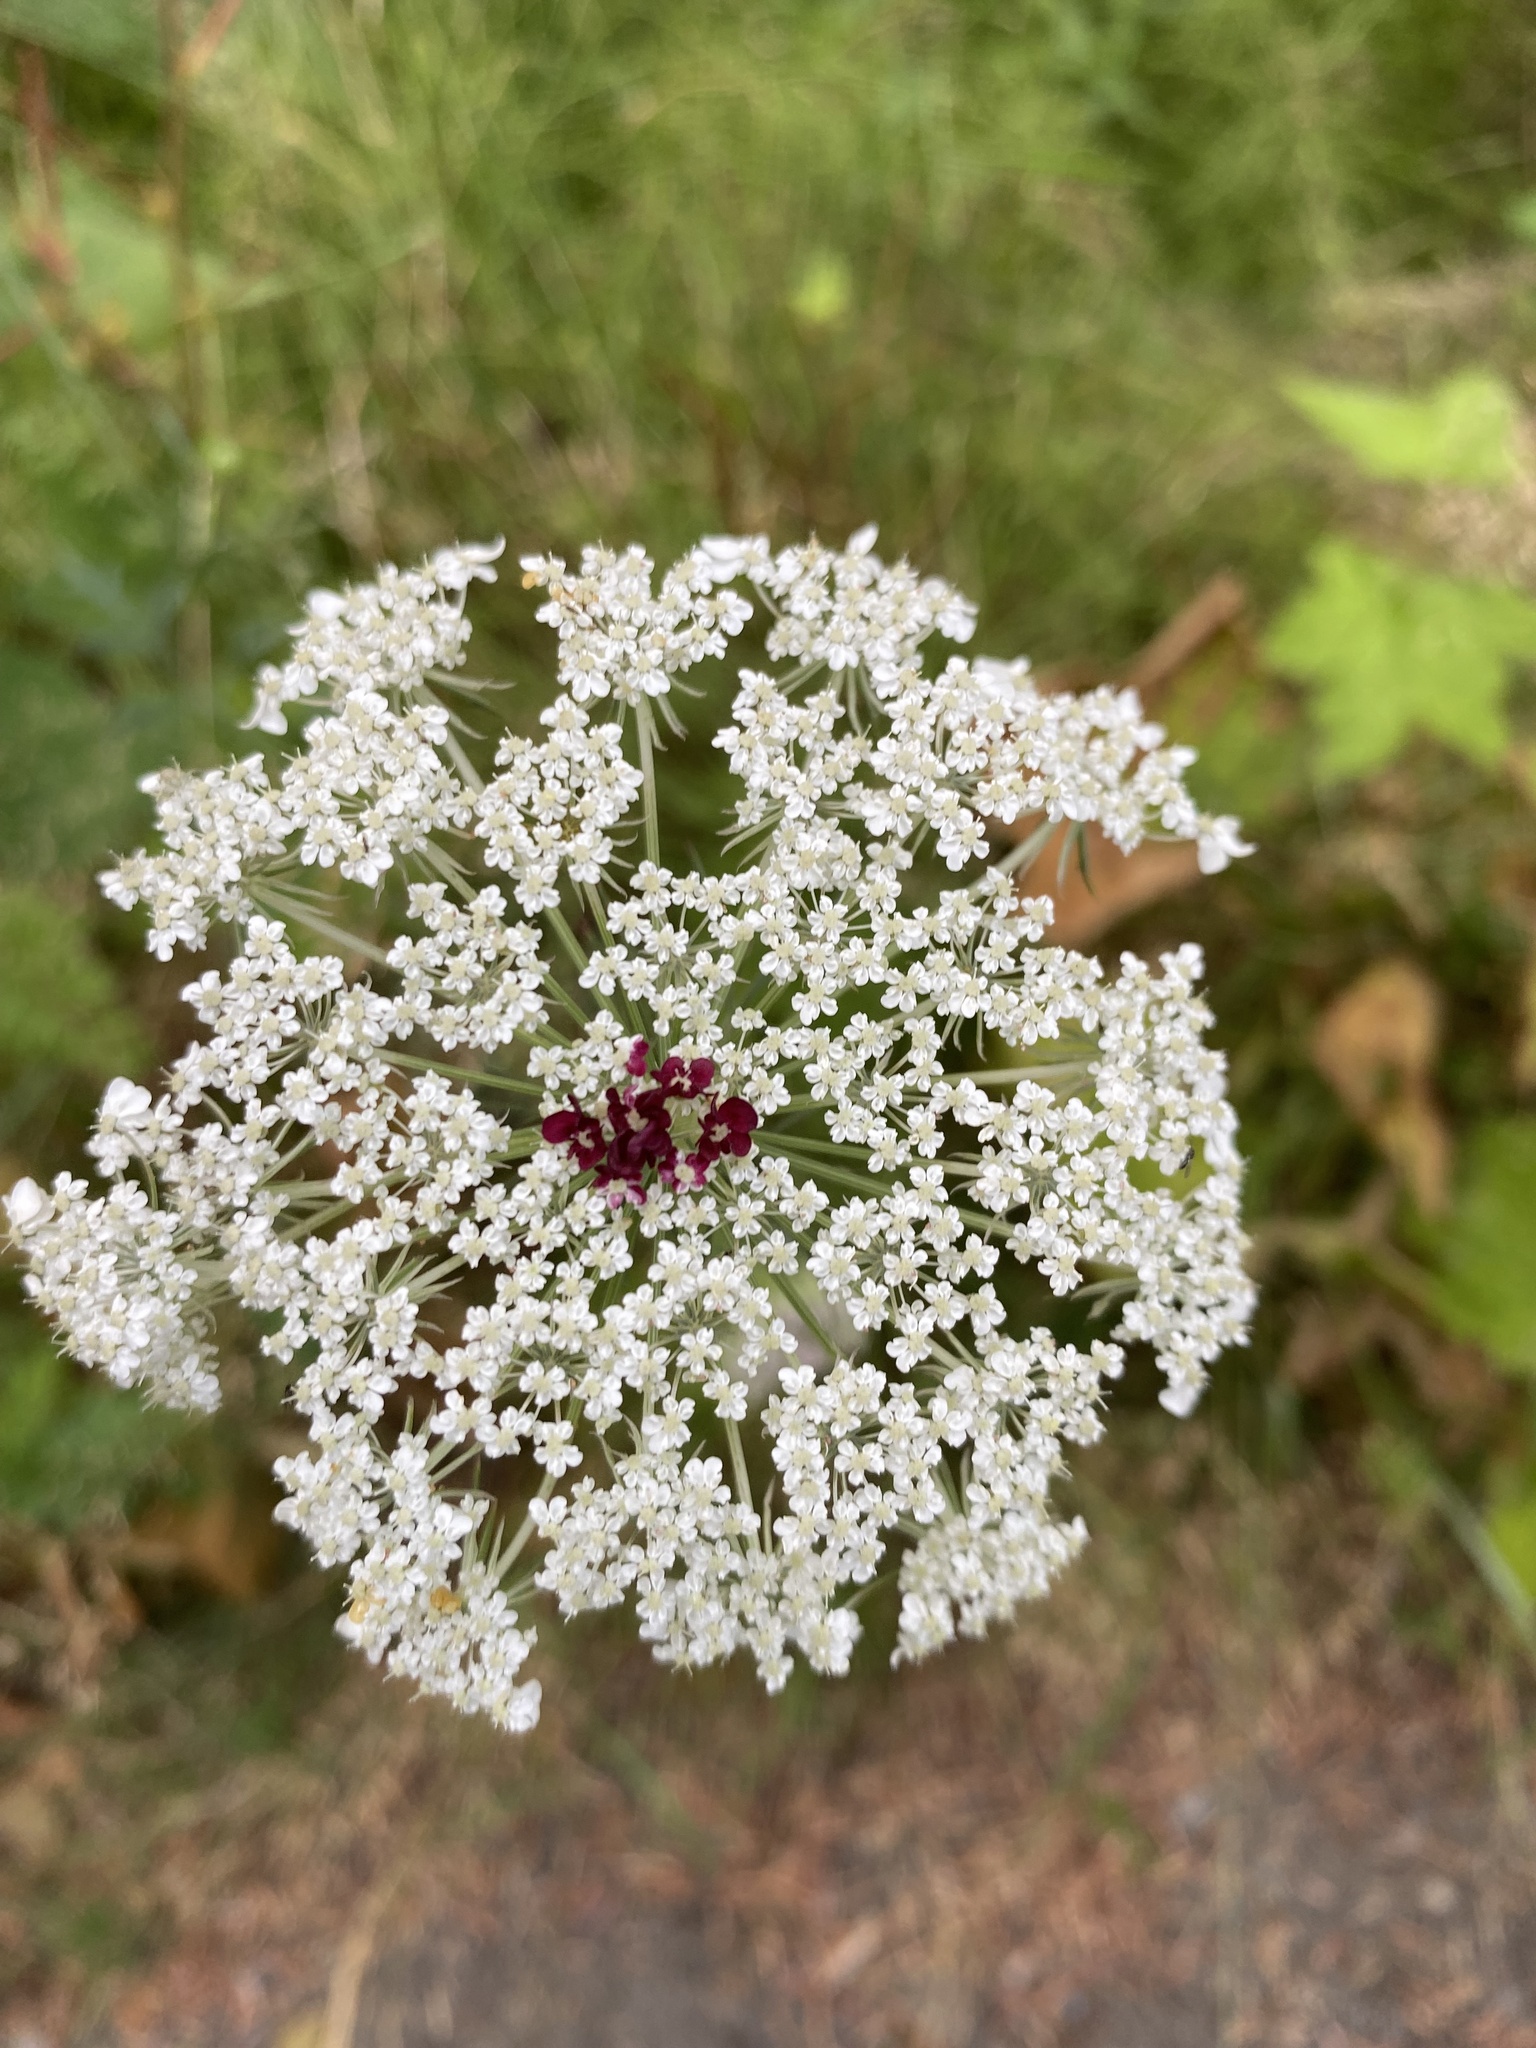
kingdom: Plantae
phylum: Tracheophyta
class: Magnoliopsida
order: Apiales
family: Apiaceae
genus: Daucus
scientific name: Daucus carota
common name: Wild carrot
